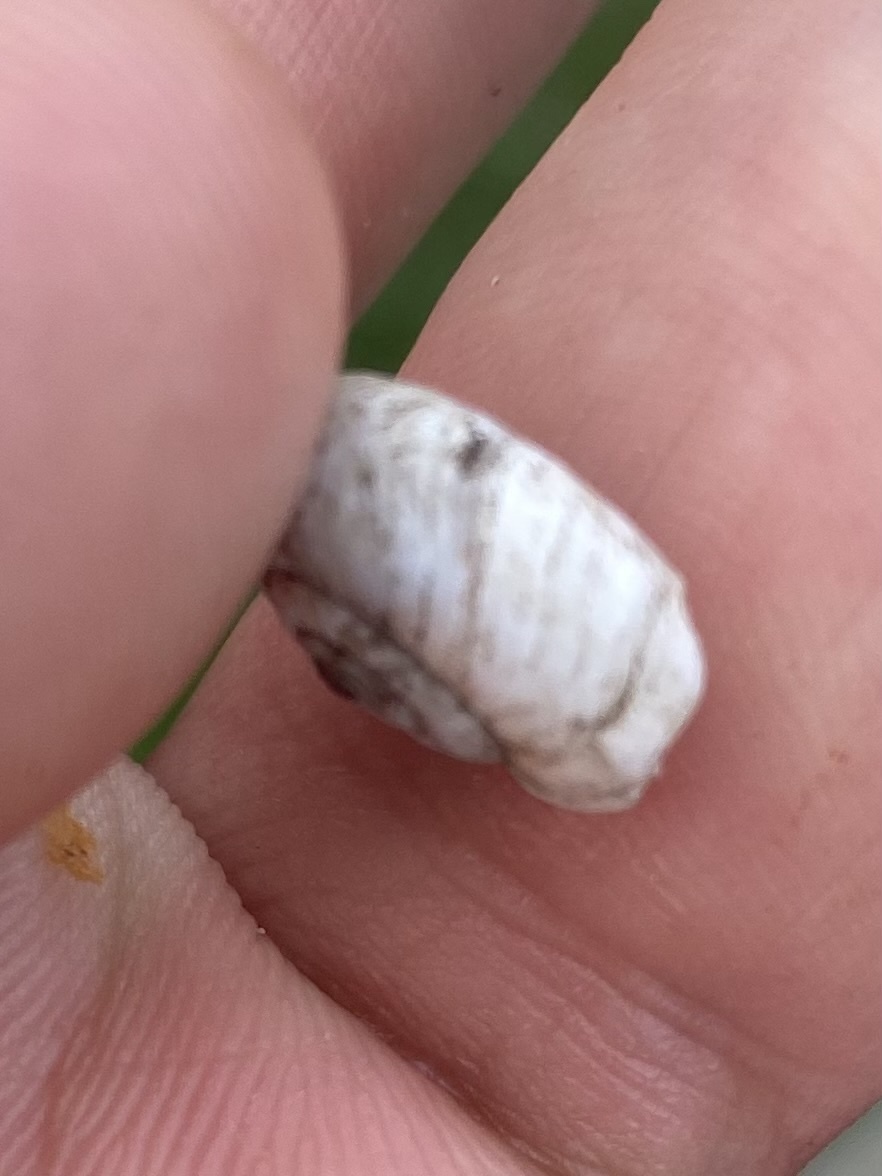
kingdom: Animalia
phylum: Mollusca
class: Gastropoda
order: Stylommatophora
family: Geomitridae
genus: Xeropicta
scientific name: Xeropicta derbentina
